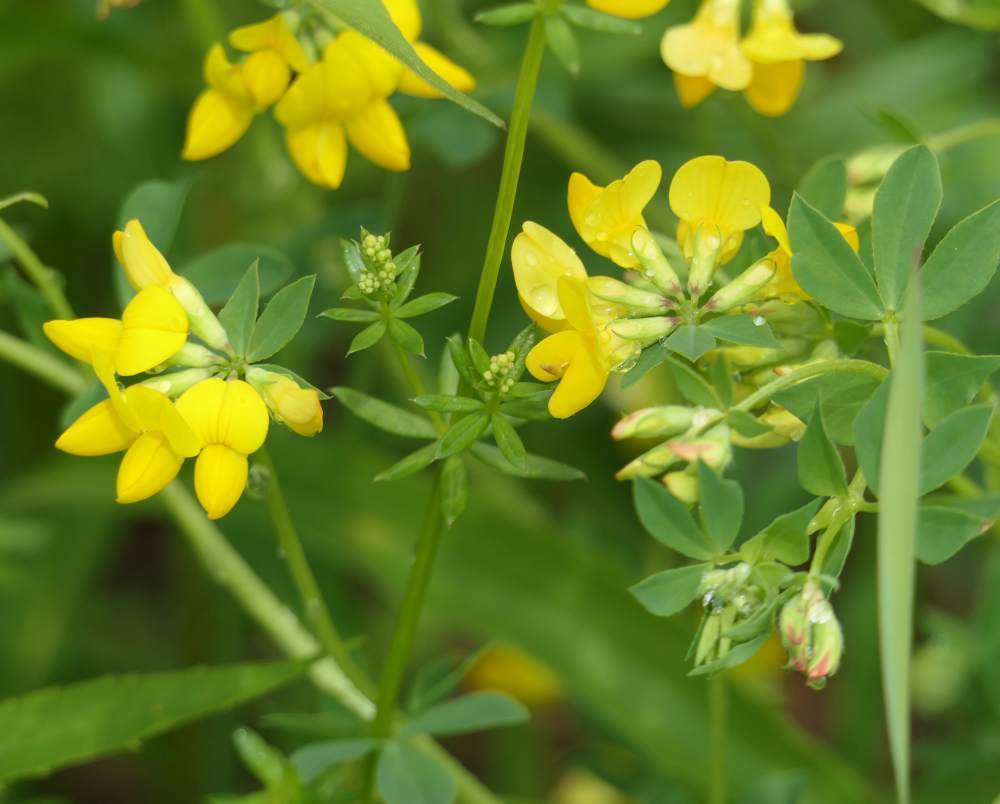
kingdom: Plantae
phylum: Tracheophyta
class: Magnoliopsida
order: Fabales
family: Fabaceae
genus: Lotus
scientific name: Lotus corniculatus
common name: Common bird's-foot-trefoil
